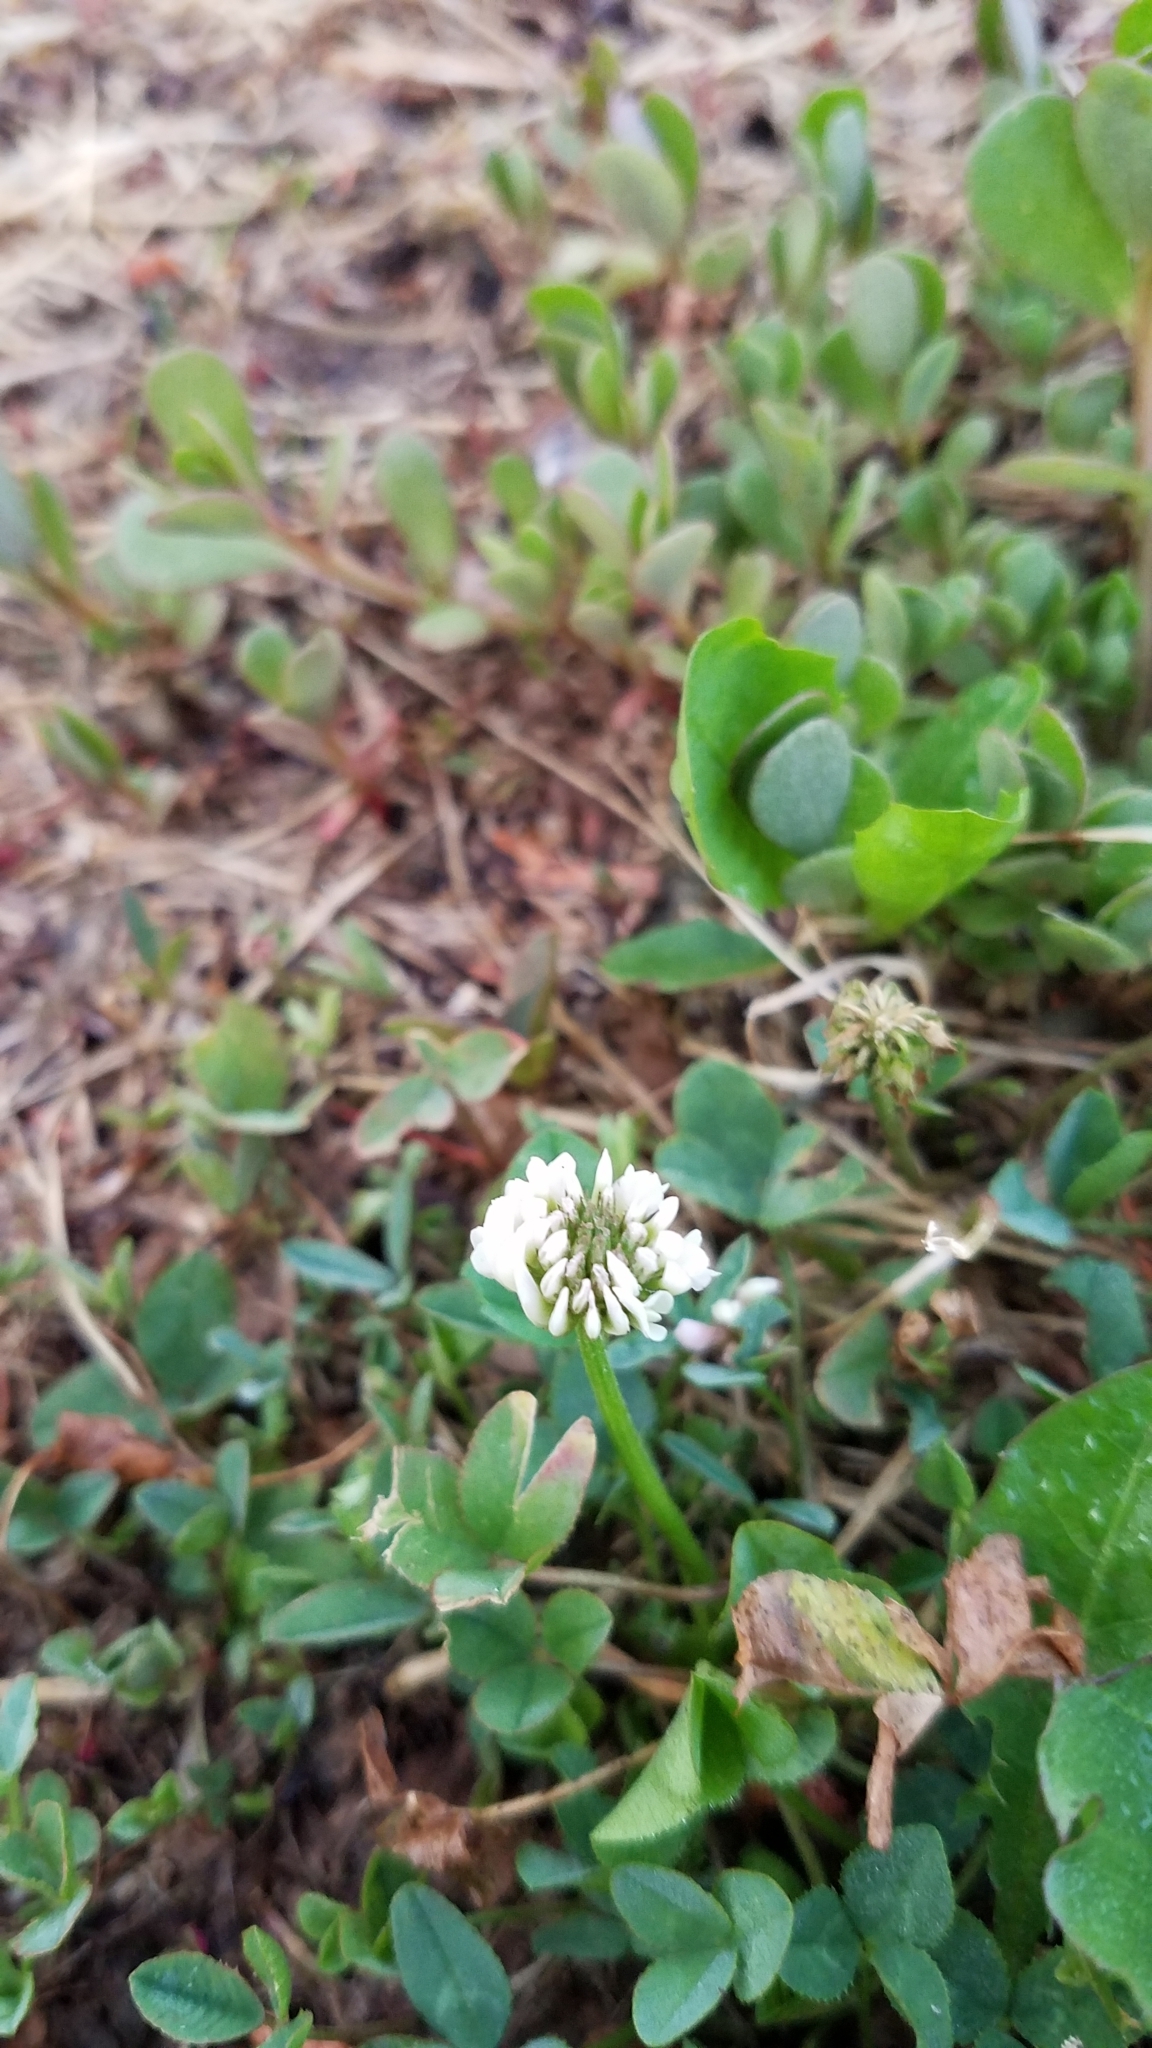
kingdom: Plantae
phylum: Tracheophyta
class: Magnoliopsida
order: Fabales
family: Fabaceae
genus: Trifolium
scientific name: Trifolium repens
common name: White clover
